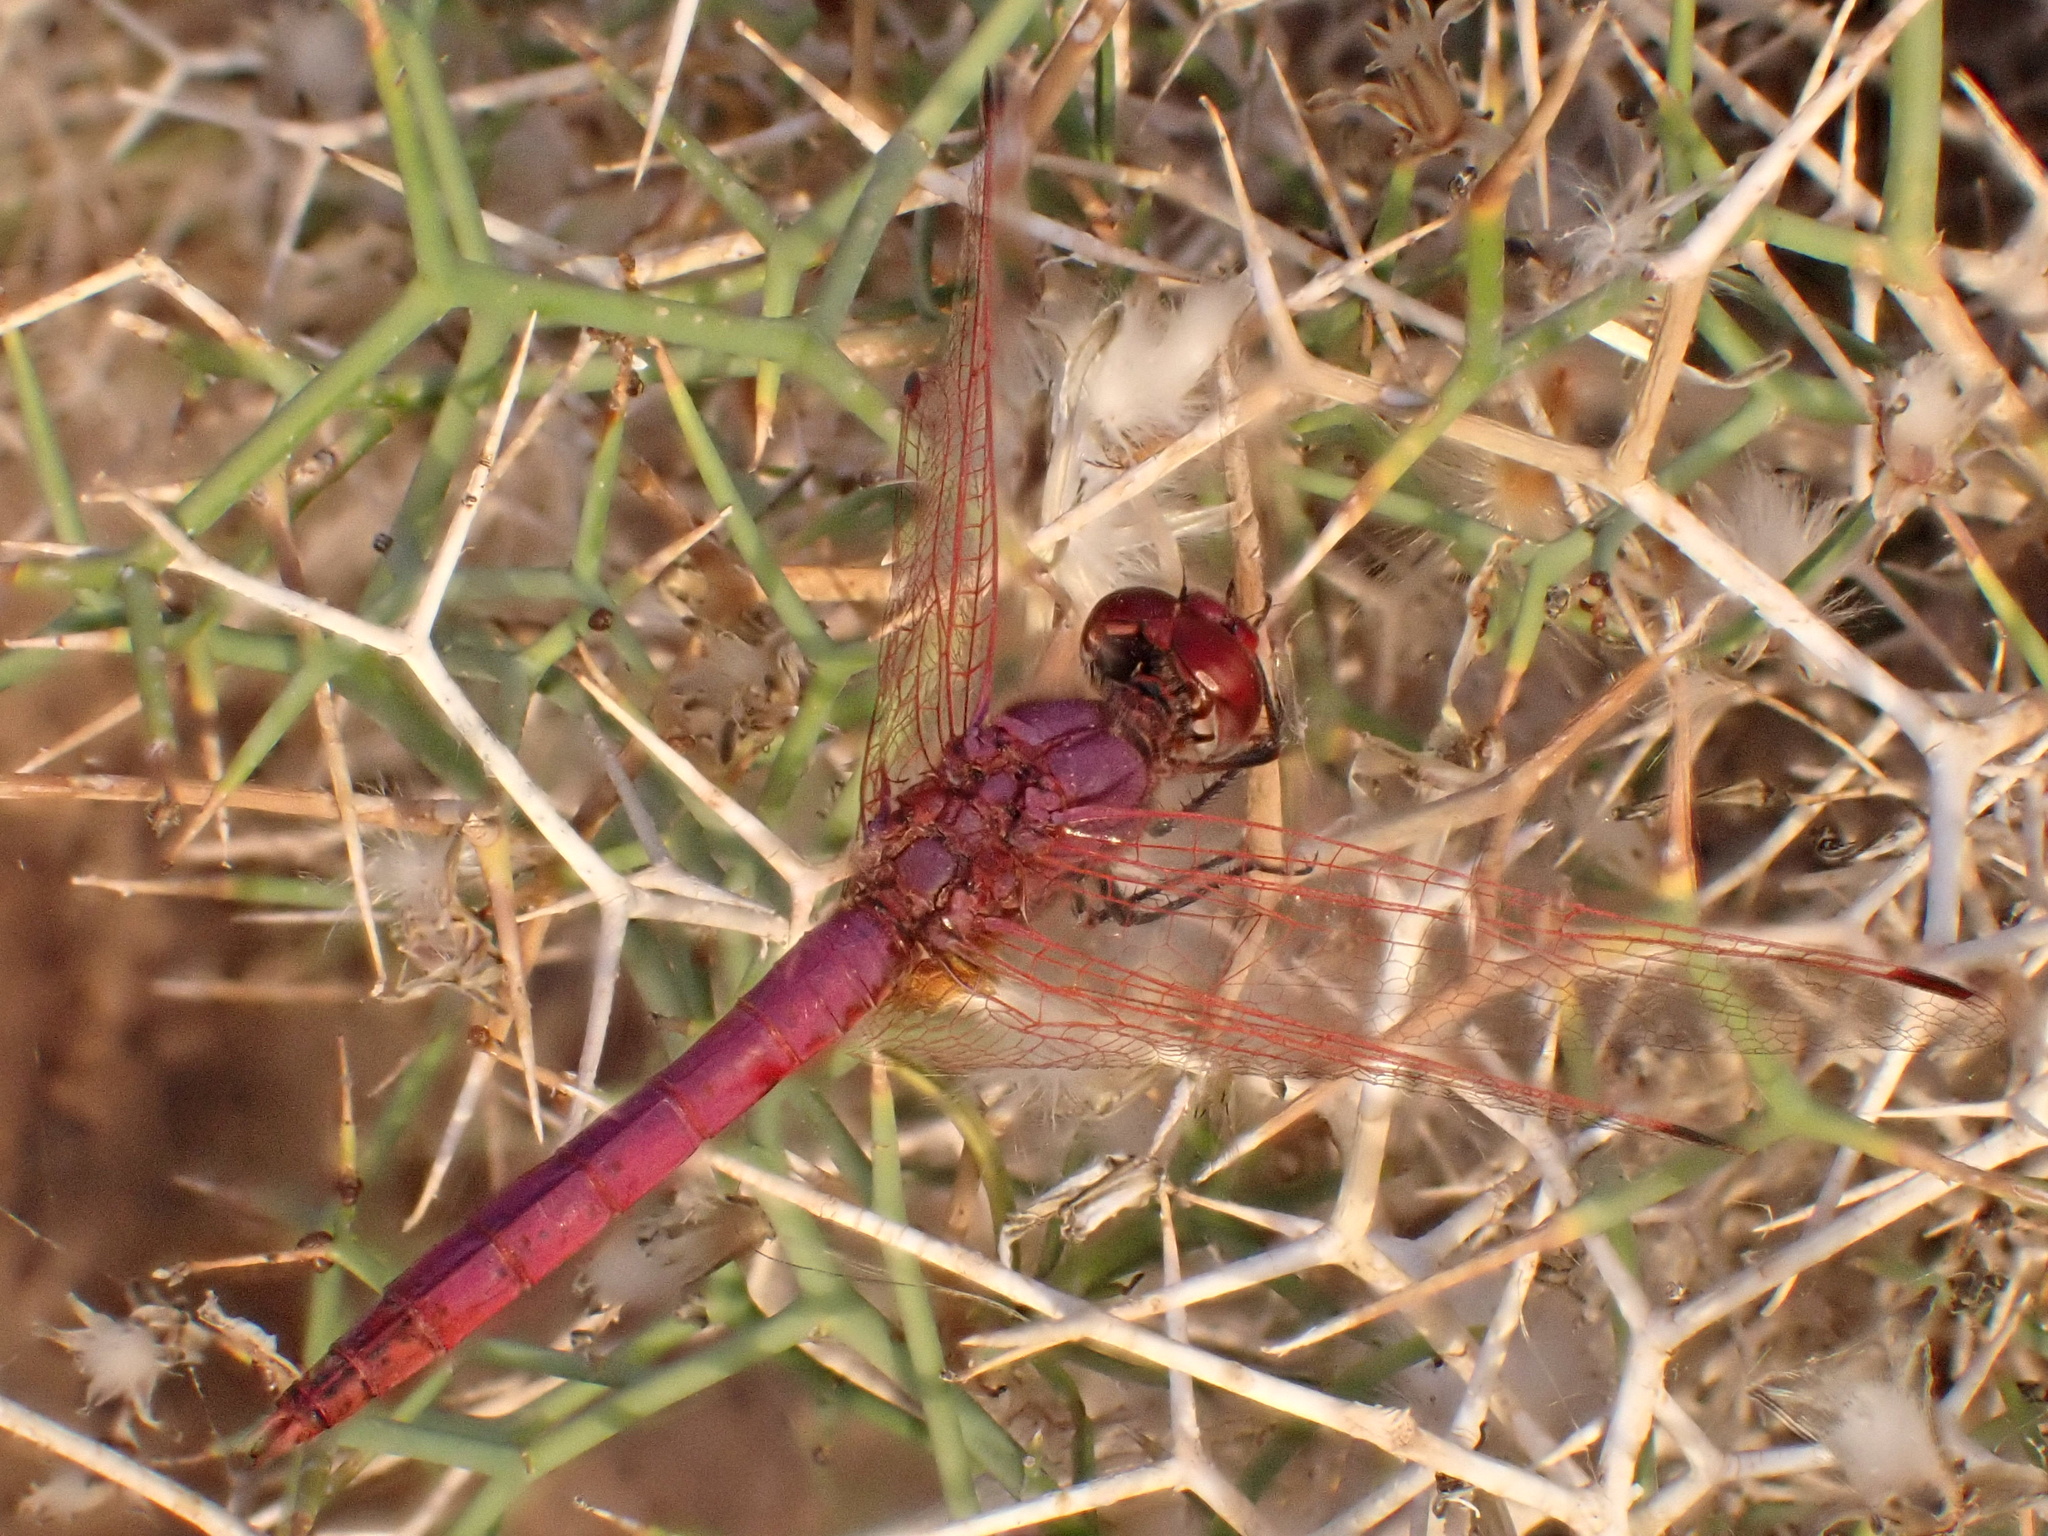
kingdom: Animalia
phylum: Arthropoda
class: Insecta
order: Odonata
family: Libellulidae
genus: Trithemis
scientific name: Trithemis annulata
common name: Violet dropwing
